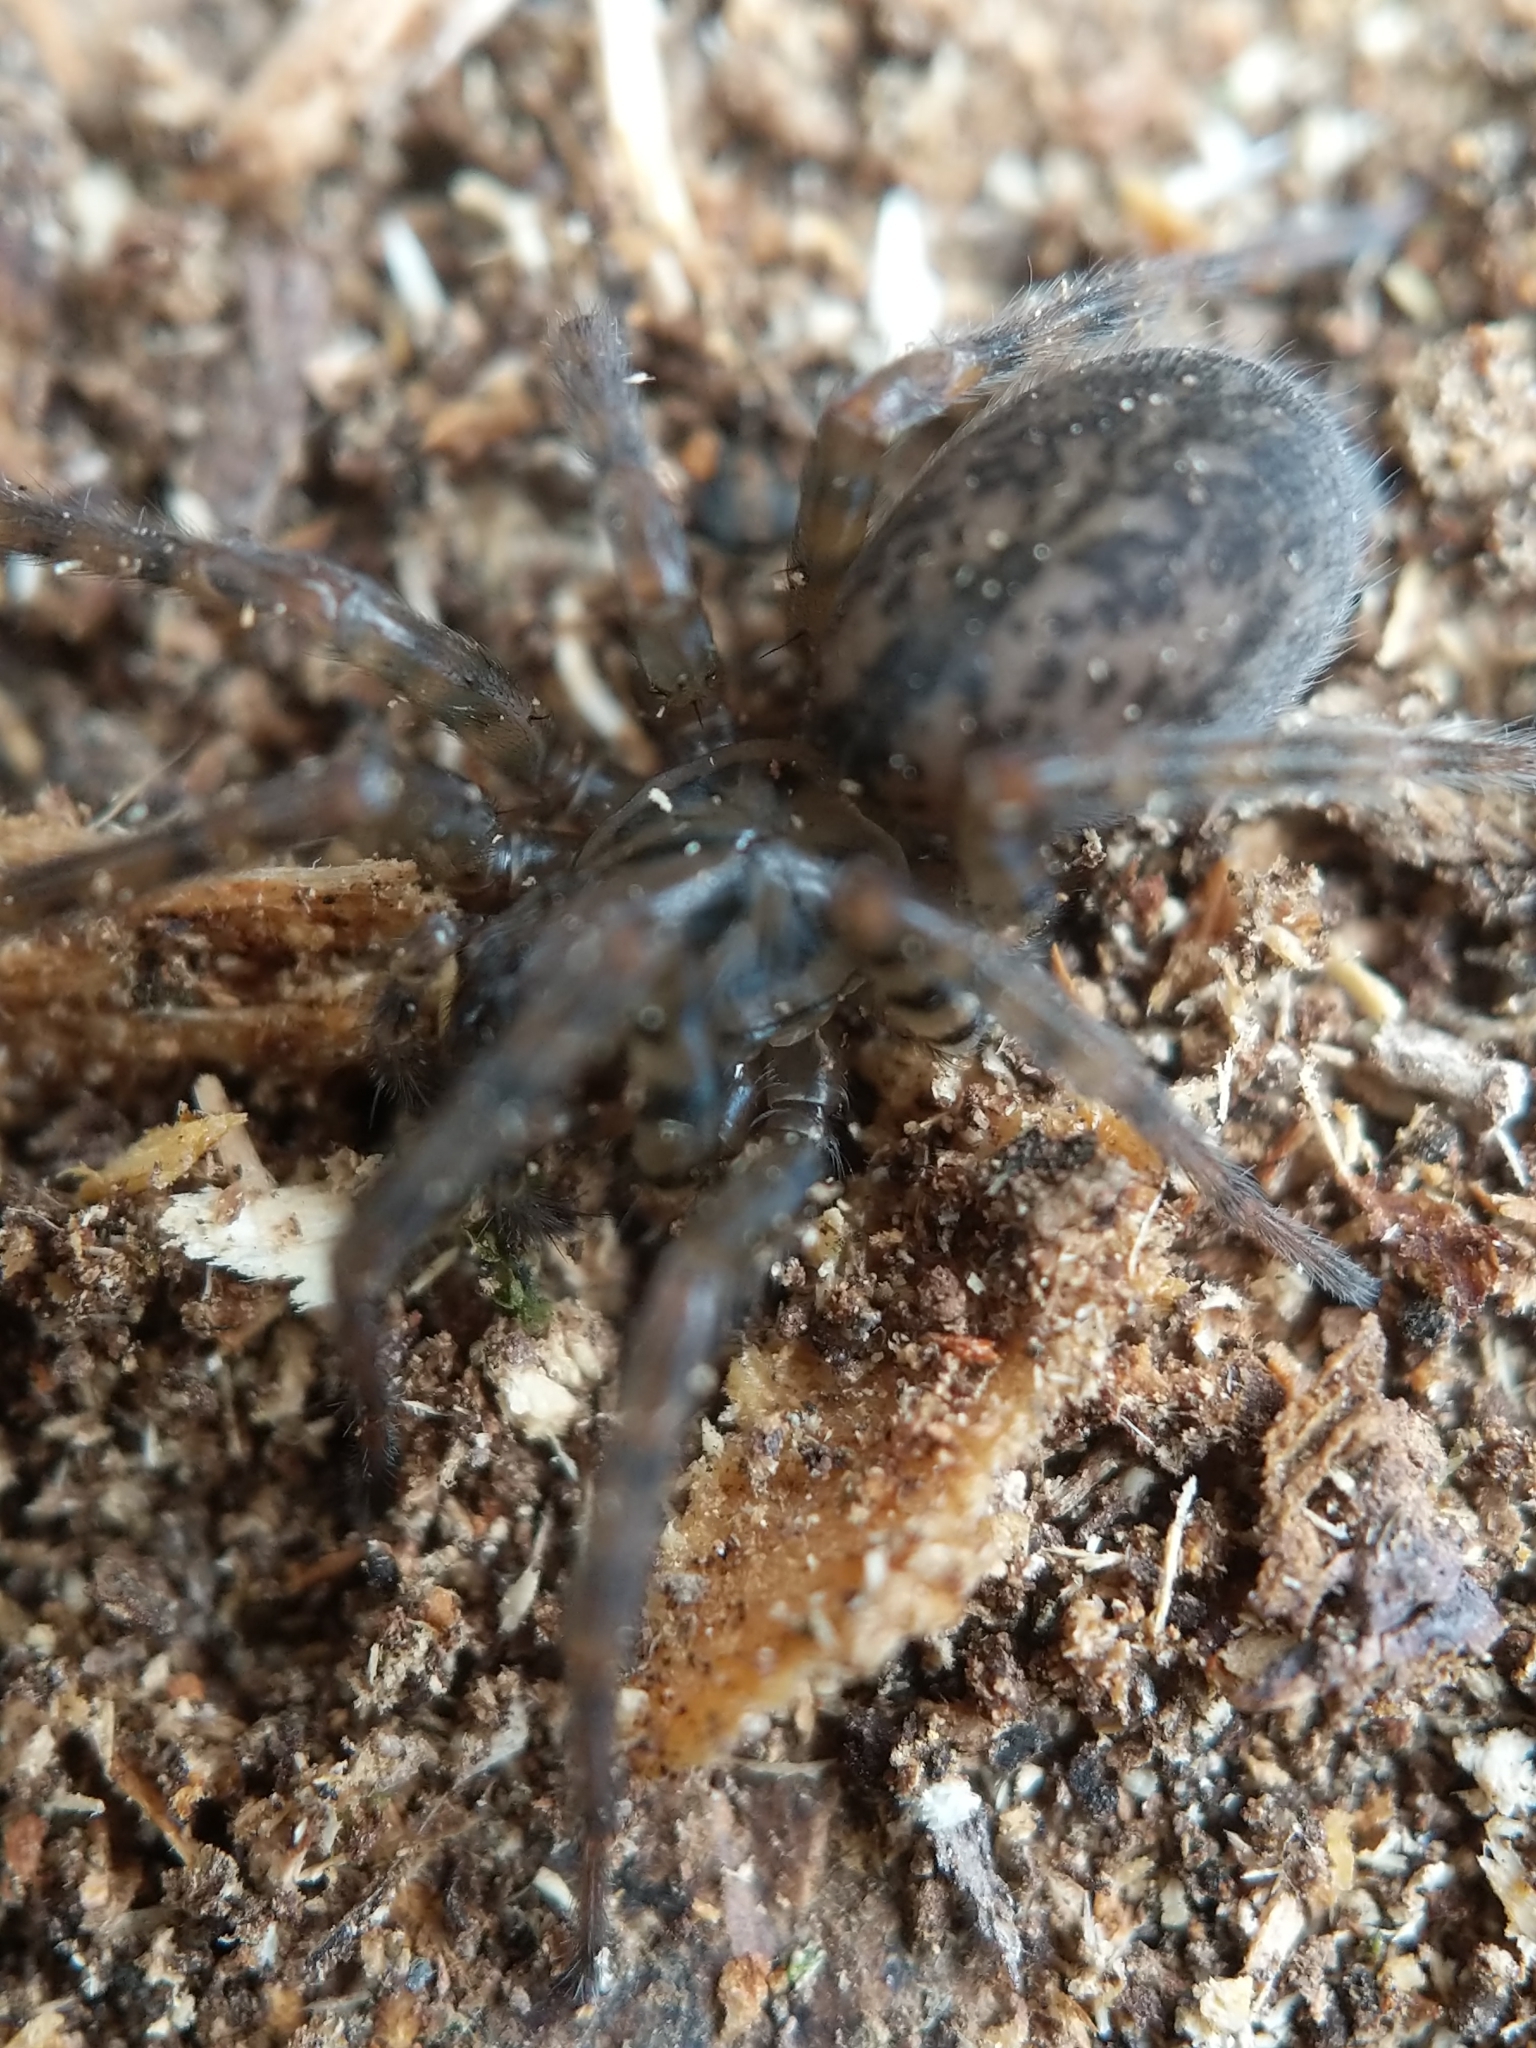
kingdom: Animalia
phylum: Arthropoda
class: Arachnida
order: Araneae
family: Agelenidae
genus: Coras
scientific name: Coras
